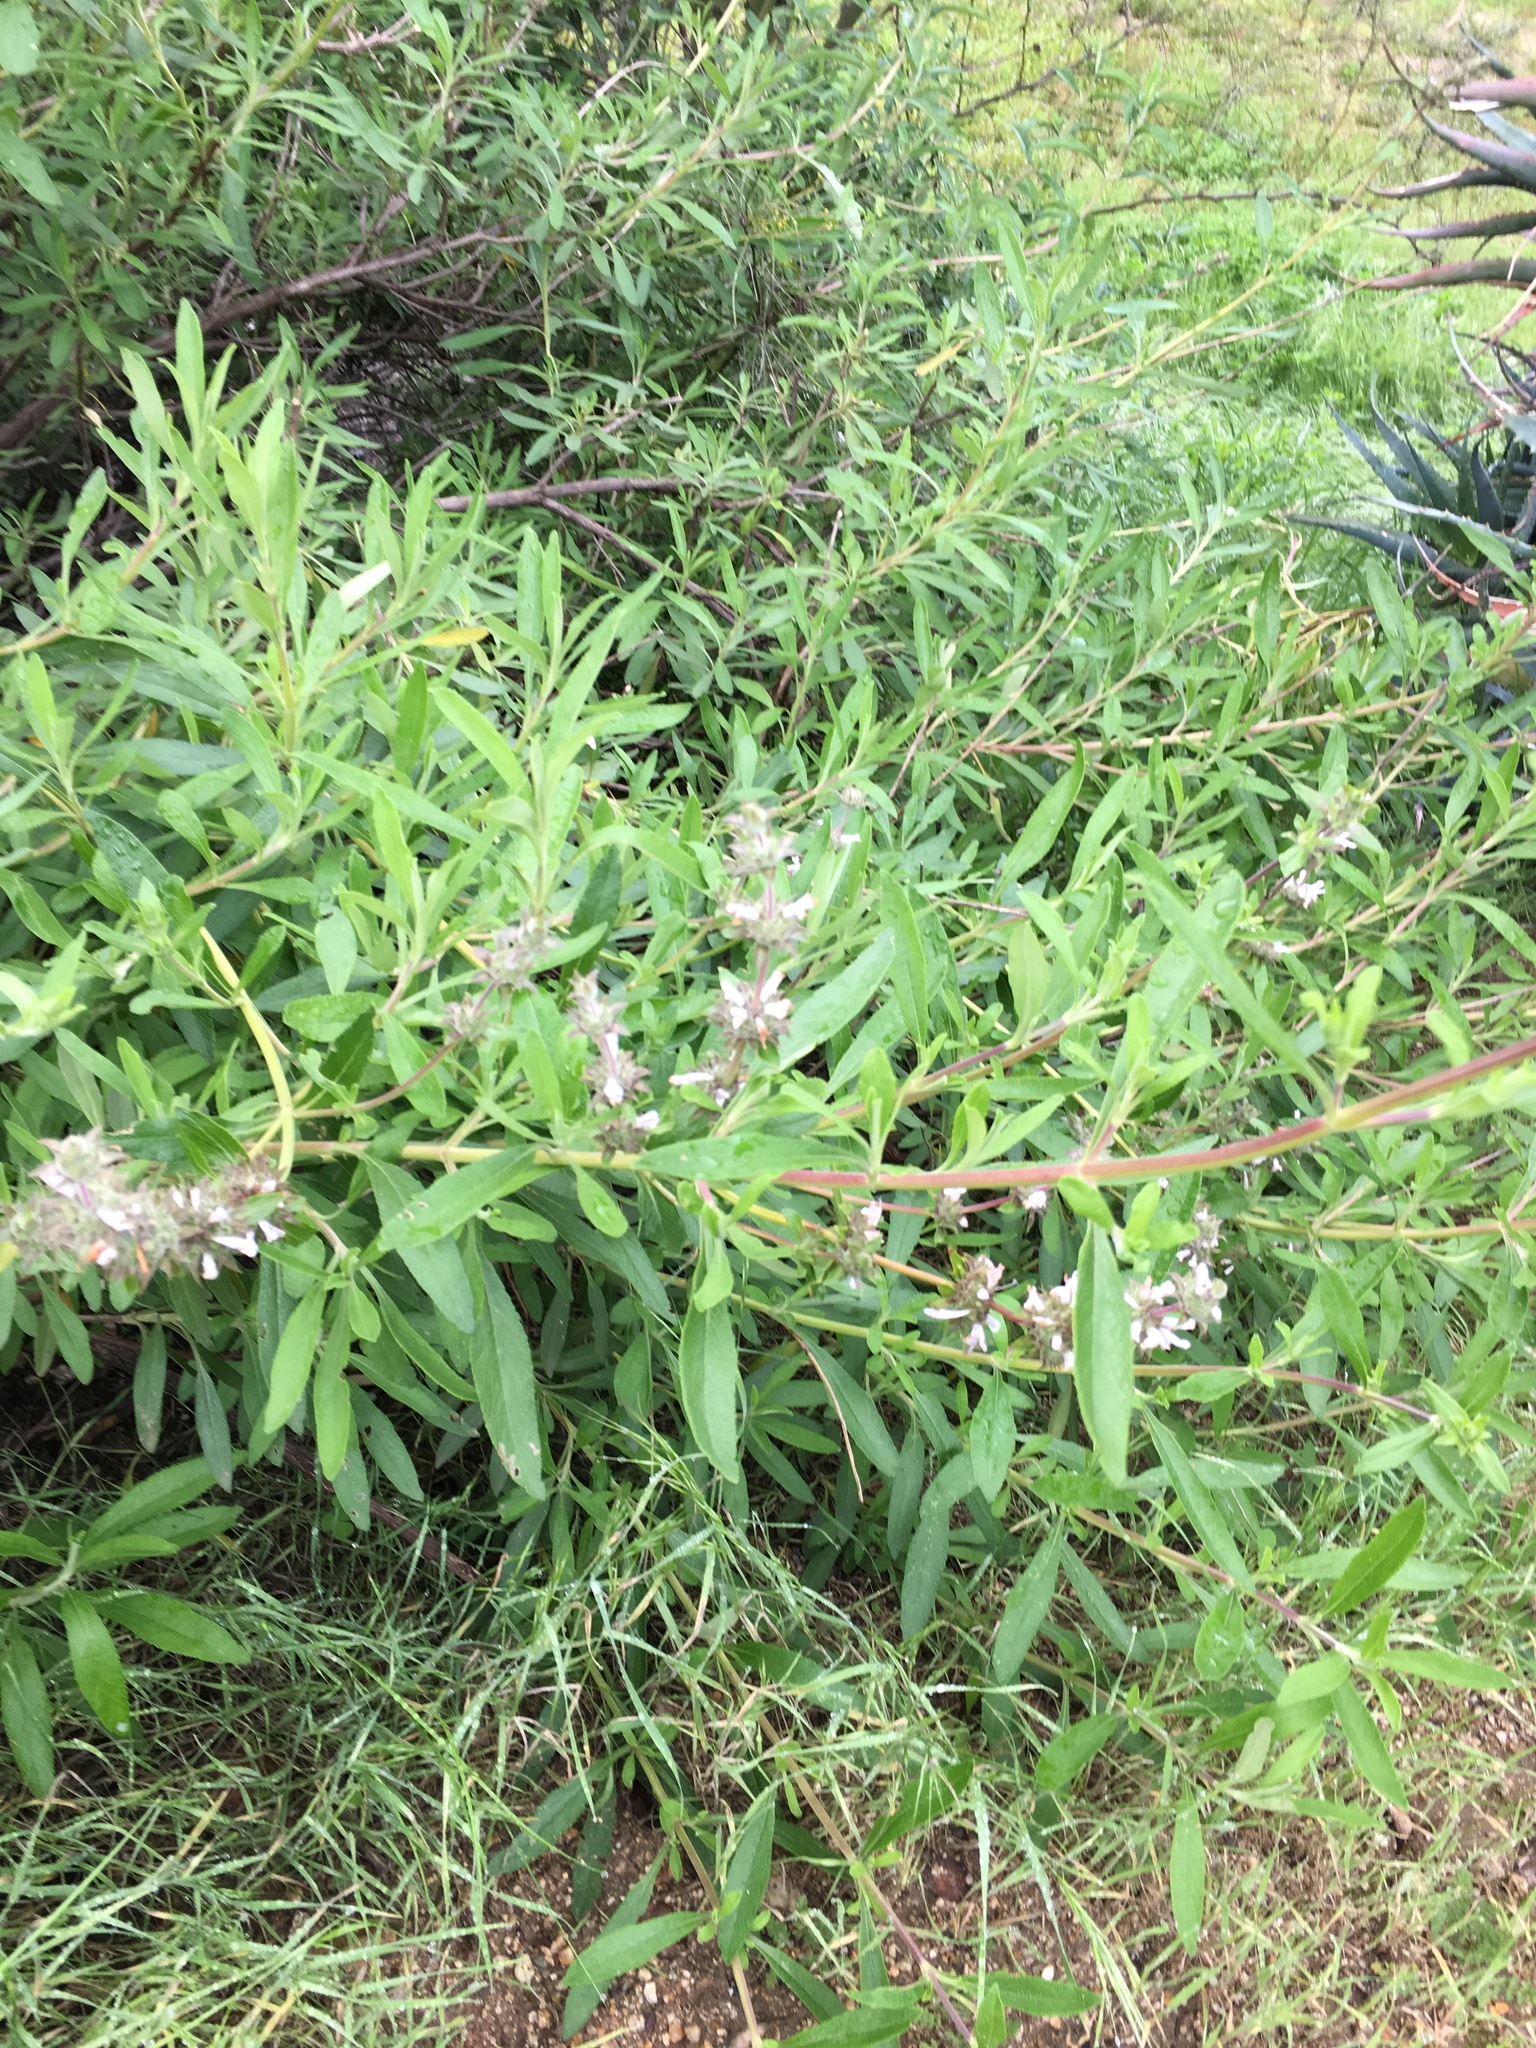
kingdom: Plantae
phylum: Tracheophyta
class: Magnoliopsida
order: Lamiales
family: Lamiaceae
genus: Salvia
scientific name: Salvia mellifera
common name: Black sage
